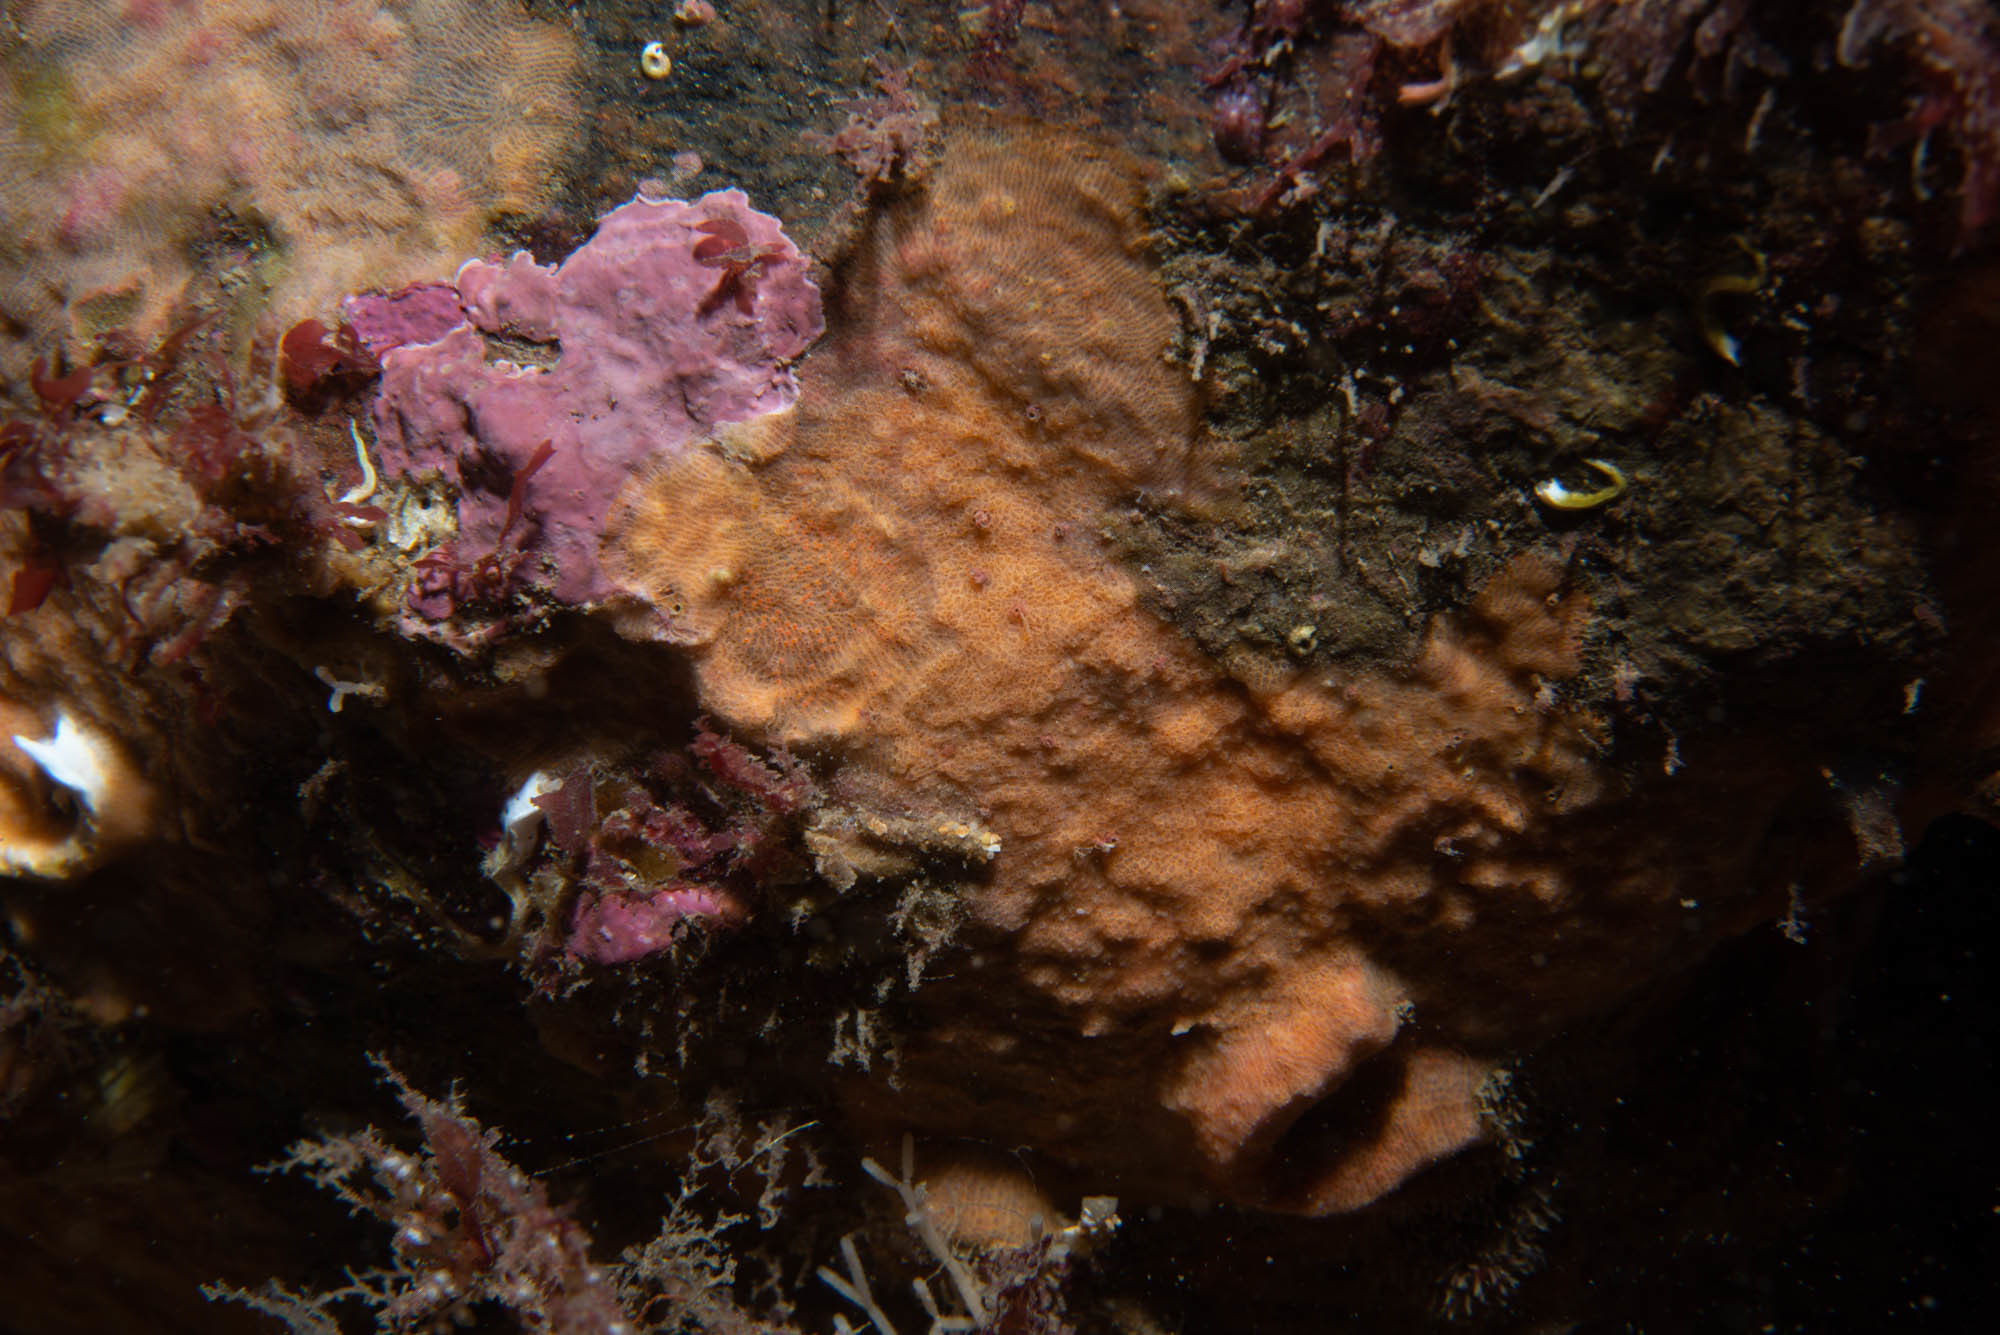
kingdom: Animalia
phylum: Bryozoa
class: Gymnolaemata
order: Cheilostomatida
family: Smittinidae
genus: Parasmittina
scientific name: Parasmittina trispinosa
